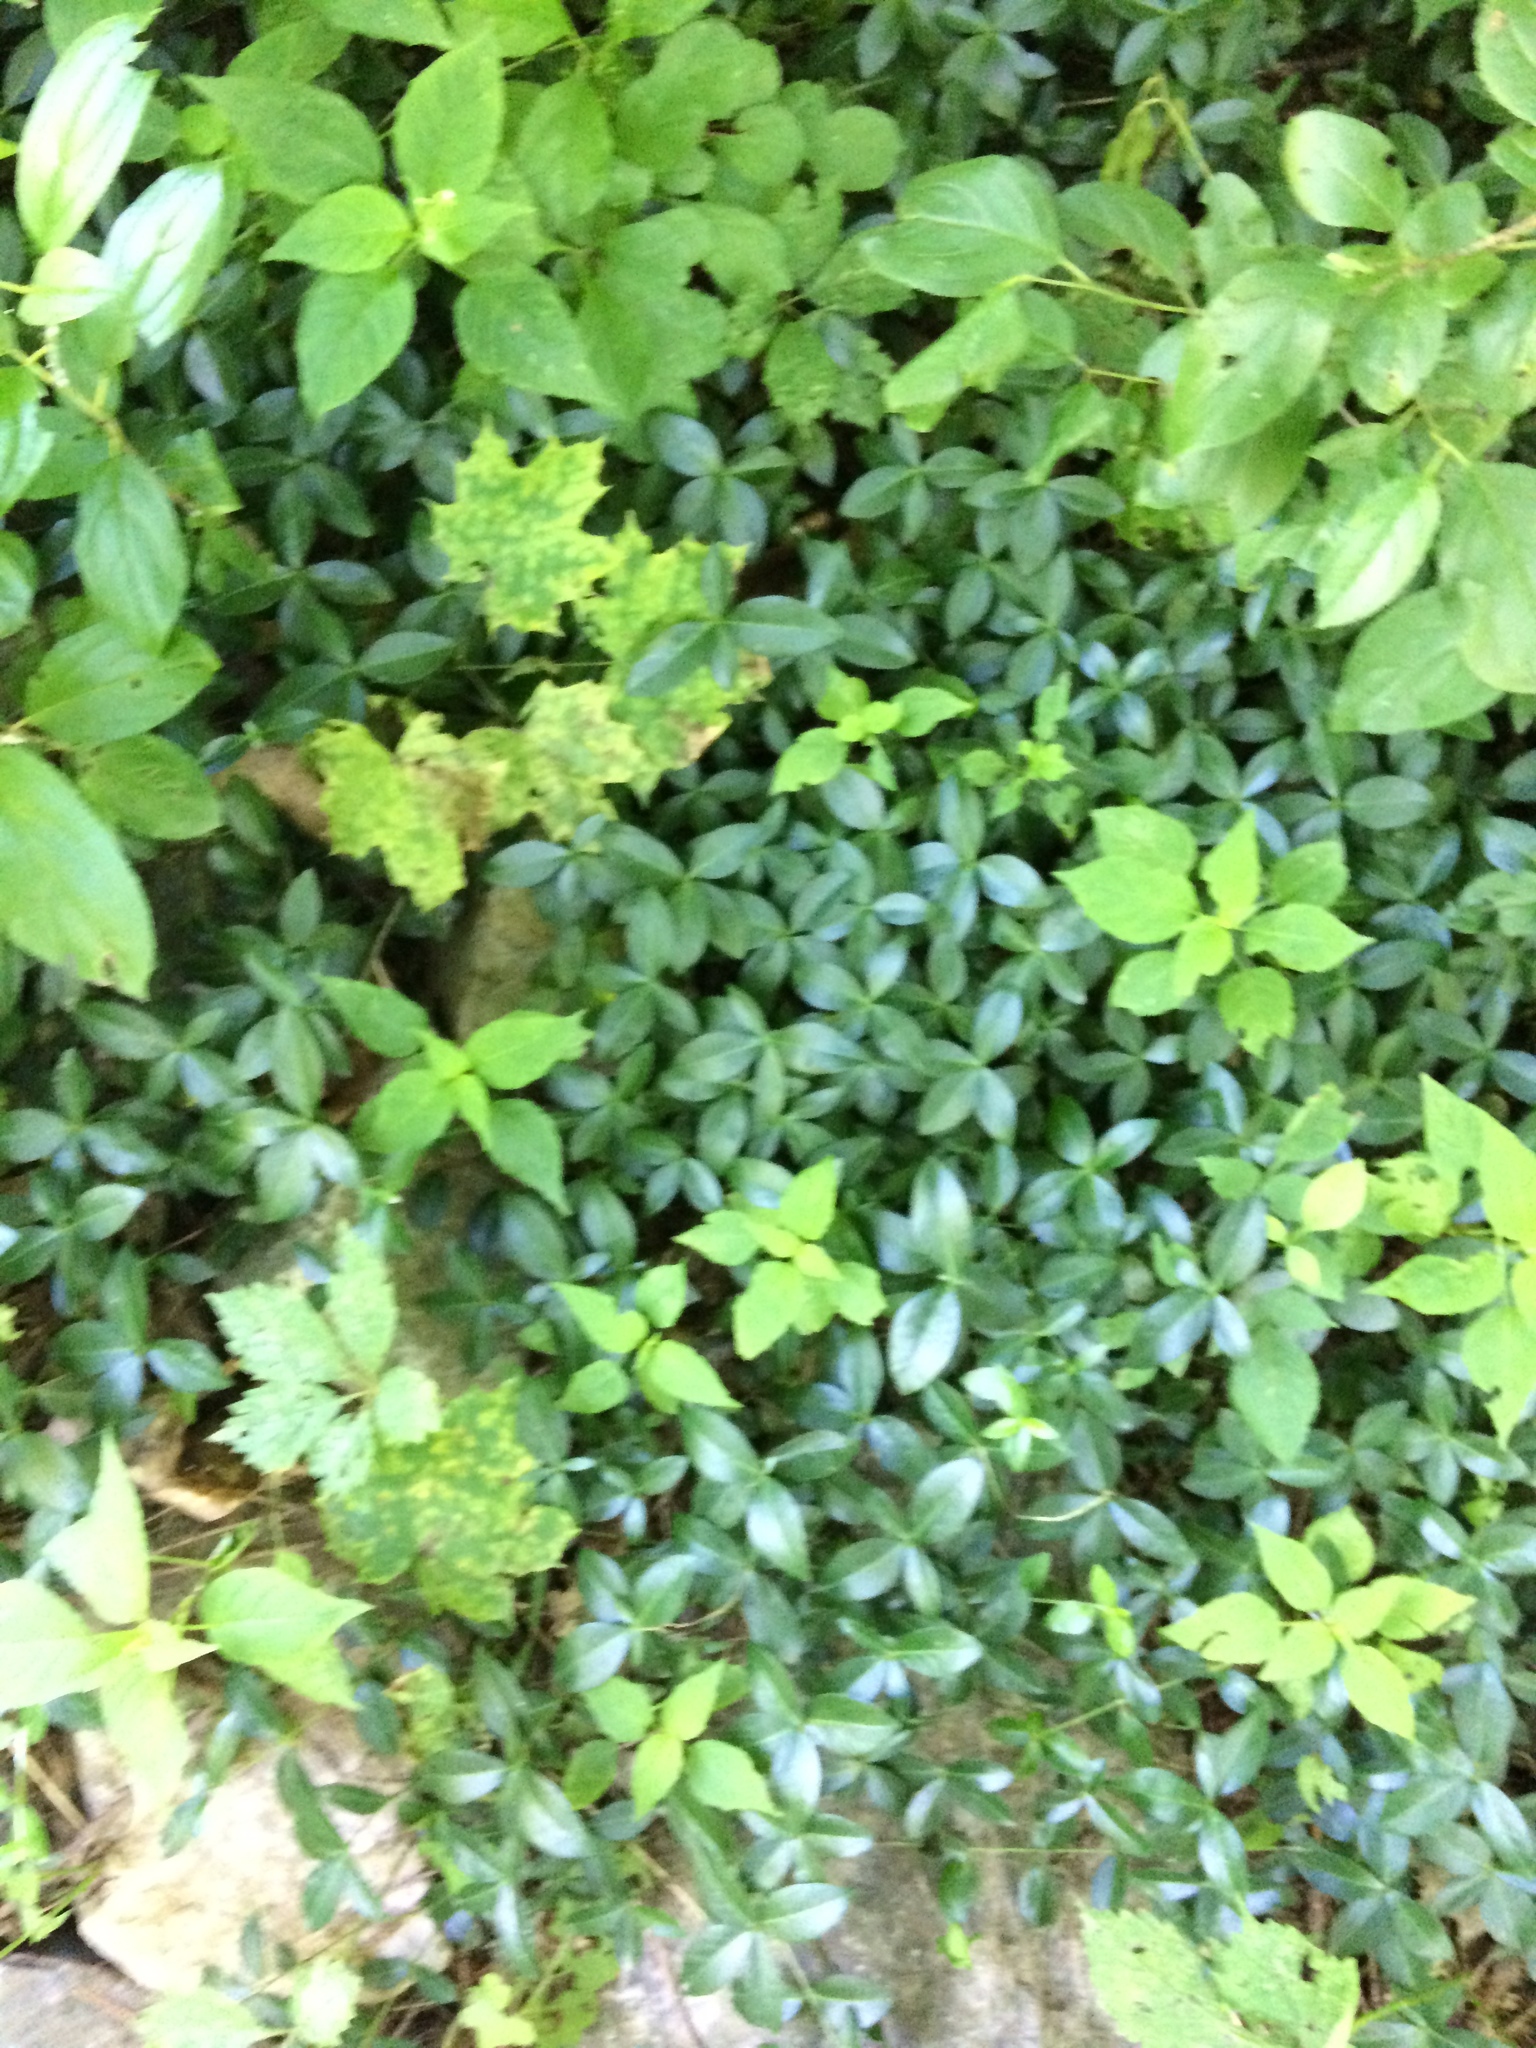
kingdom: Plantae
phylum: Tracheophyta
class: Magnoliopsida
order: Gentianales
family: Apocynaceae
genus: Vinca
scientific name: Vinca minor
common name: Lesser periwinkle
